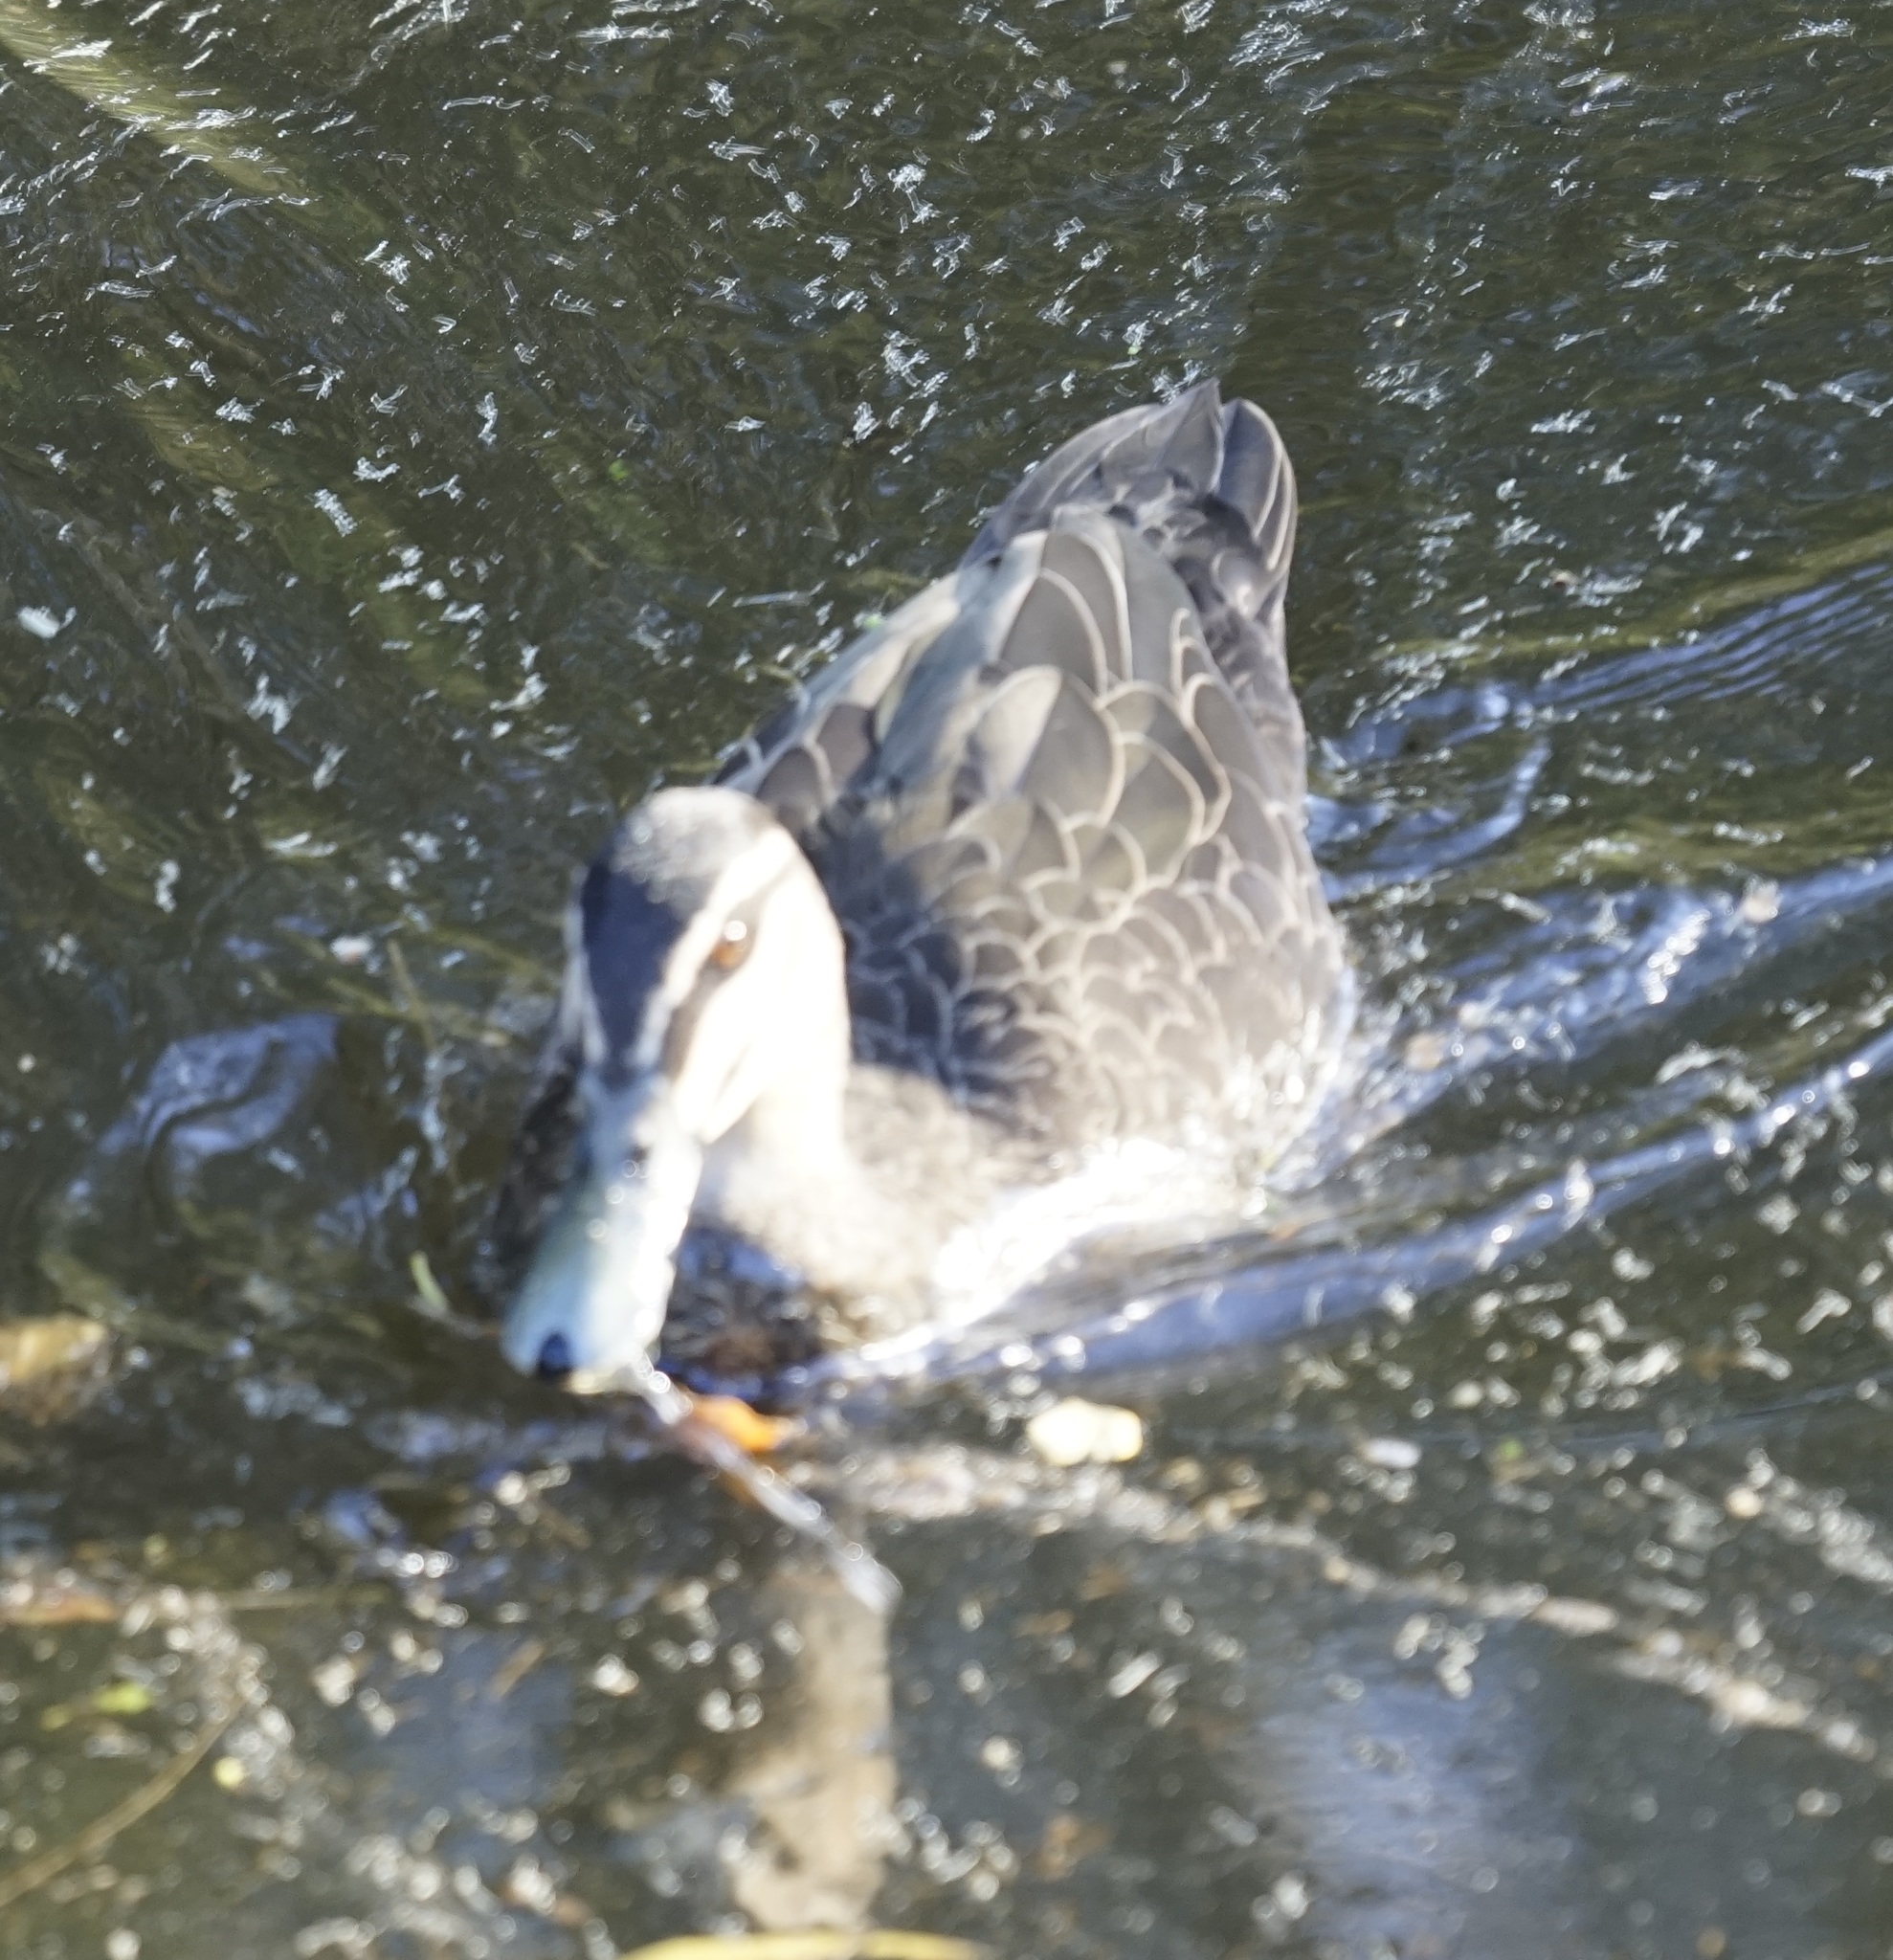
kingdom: Animalia
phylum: Chordata
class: Aves
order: Anseriformes
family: Anatidae
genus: Anas
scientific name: Anas superciliosa
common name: Pacific black duck
